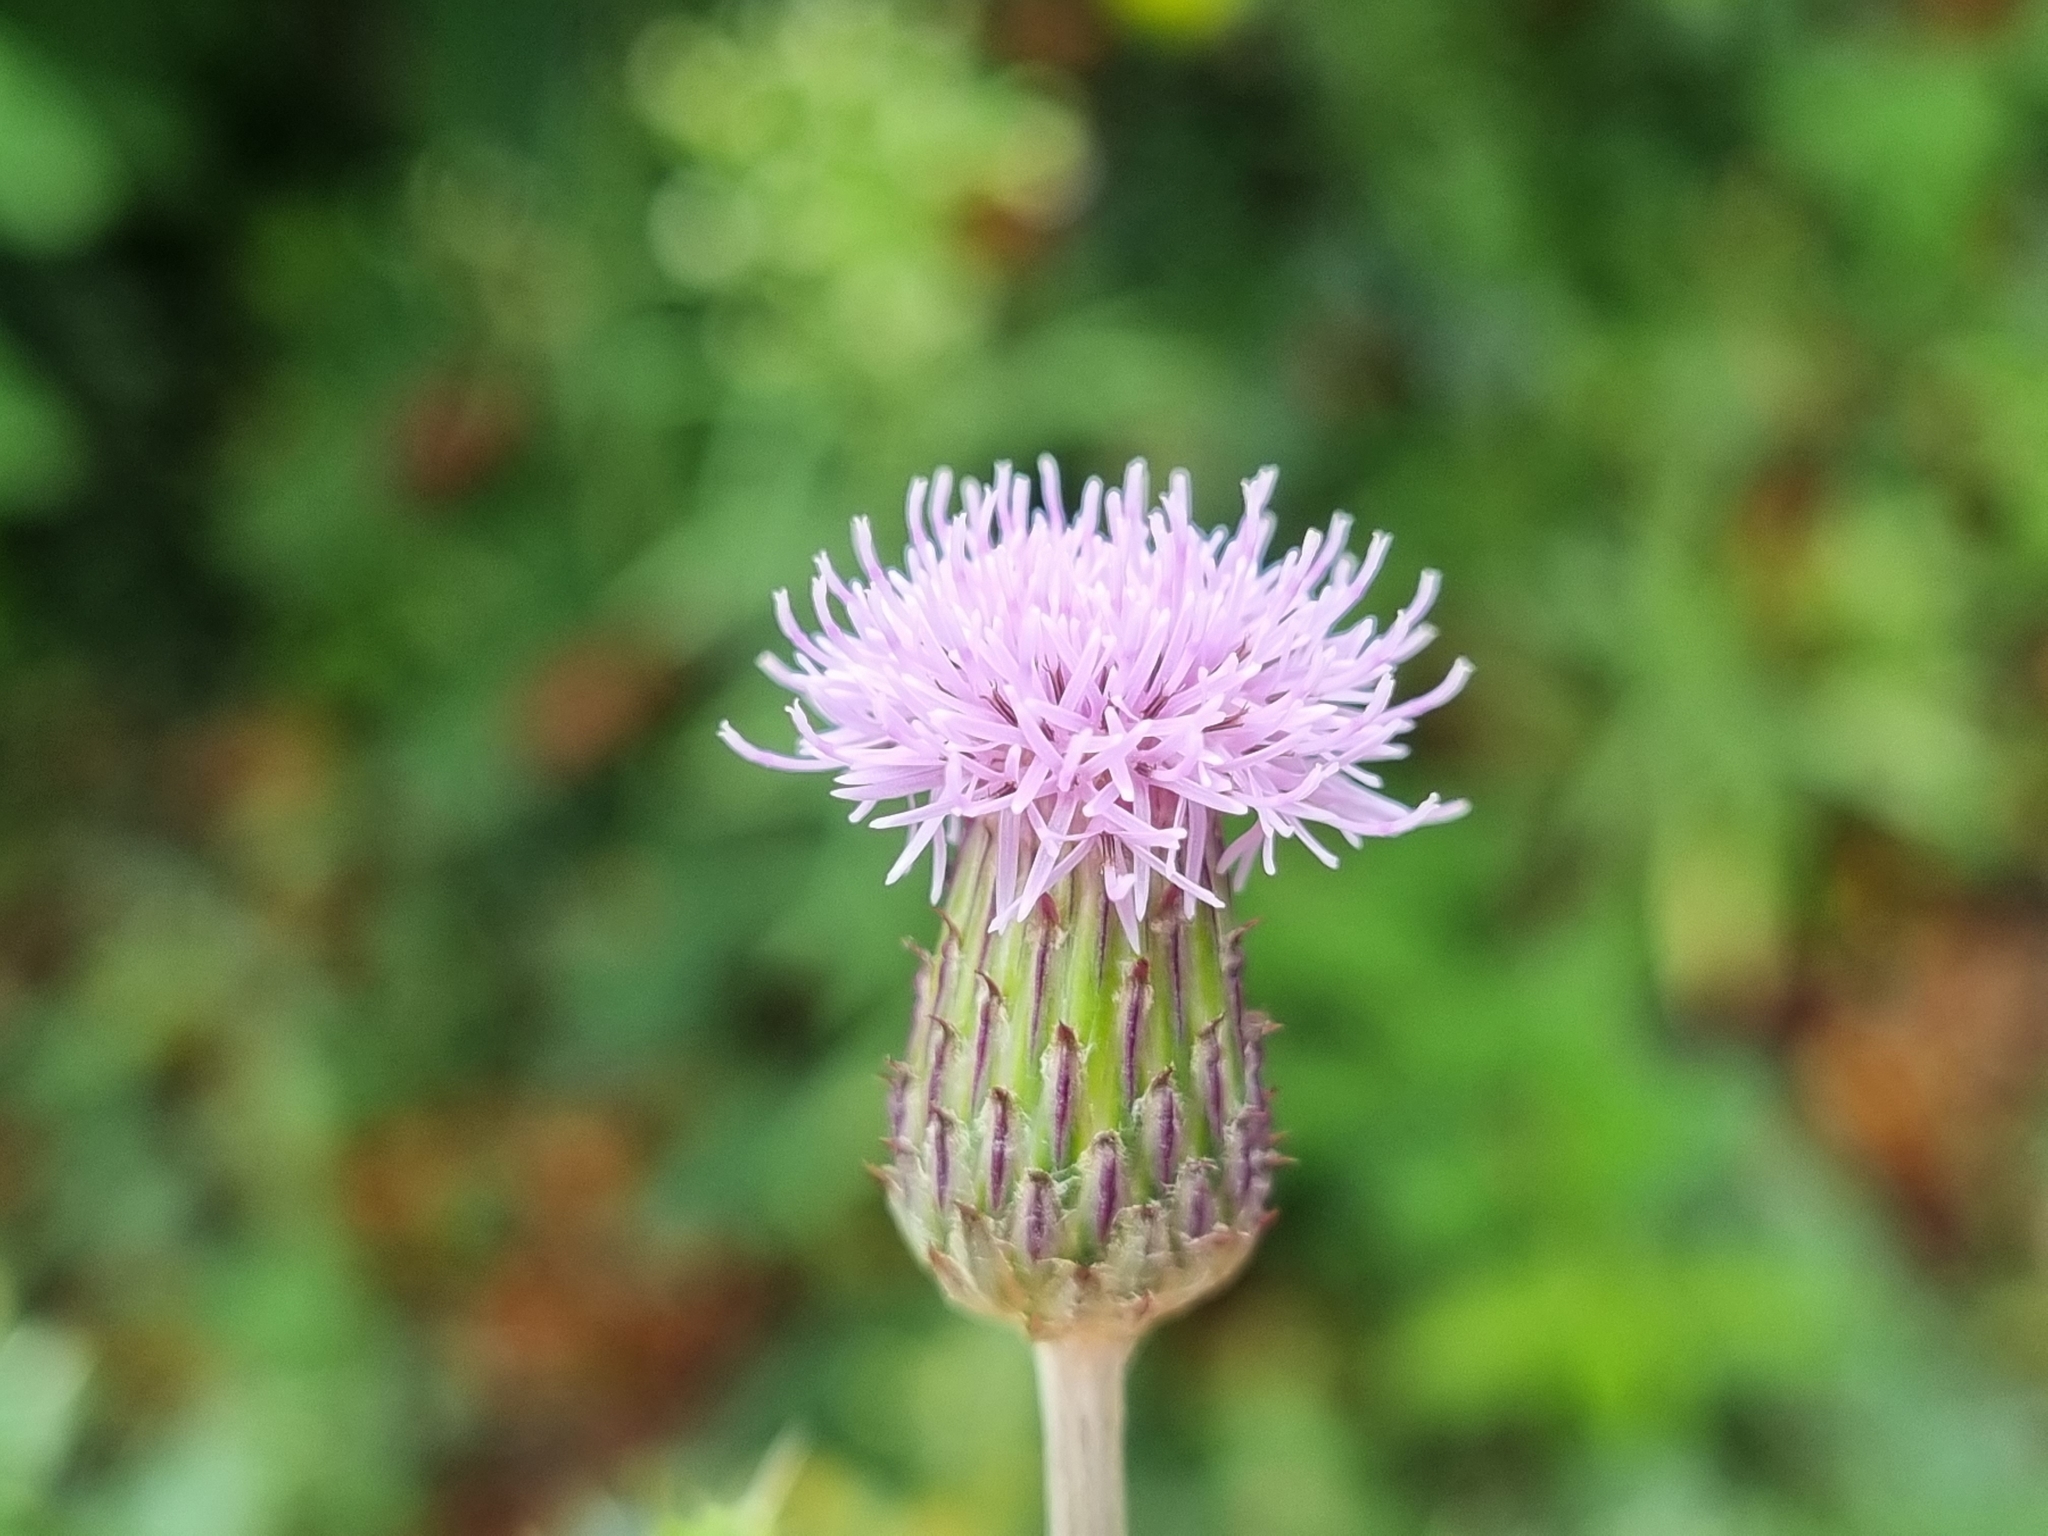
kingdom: Plantae
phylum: Tracheophyta
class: Magnoliopsida
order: Asterales
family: Asteraceae
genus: Cirsium
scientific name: Cirsium arvense
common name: Creeping thistle
